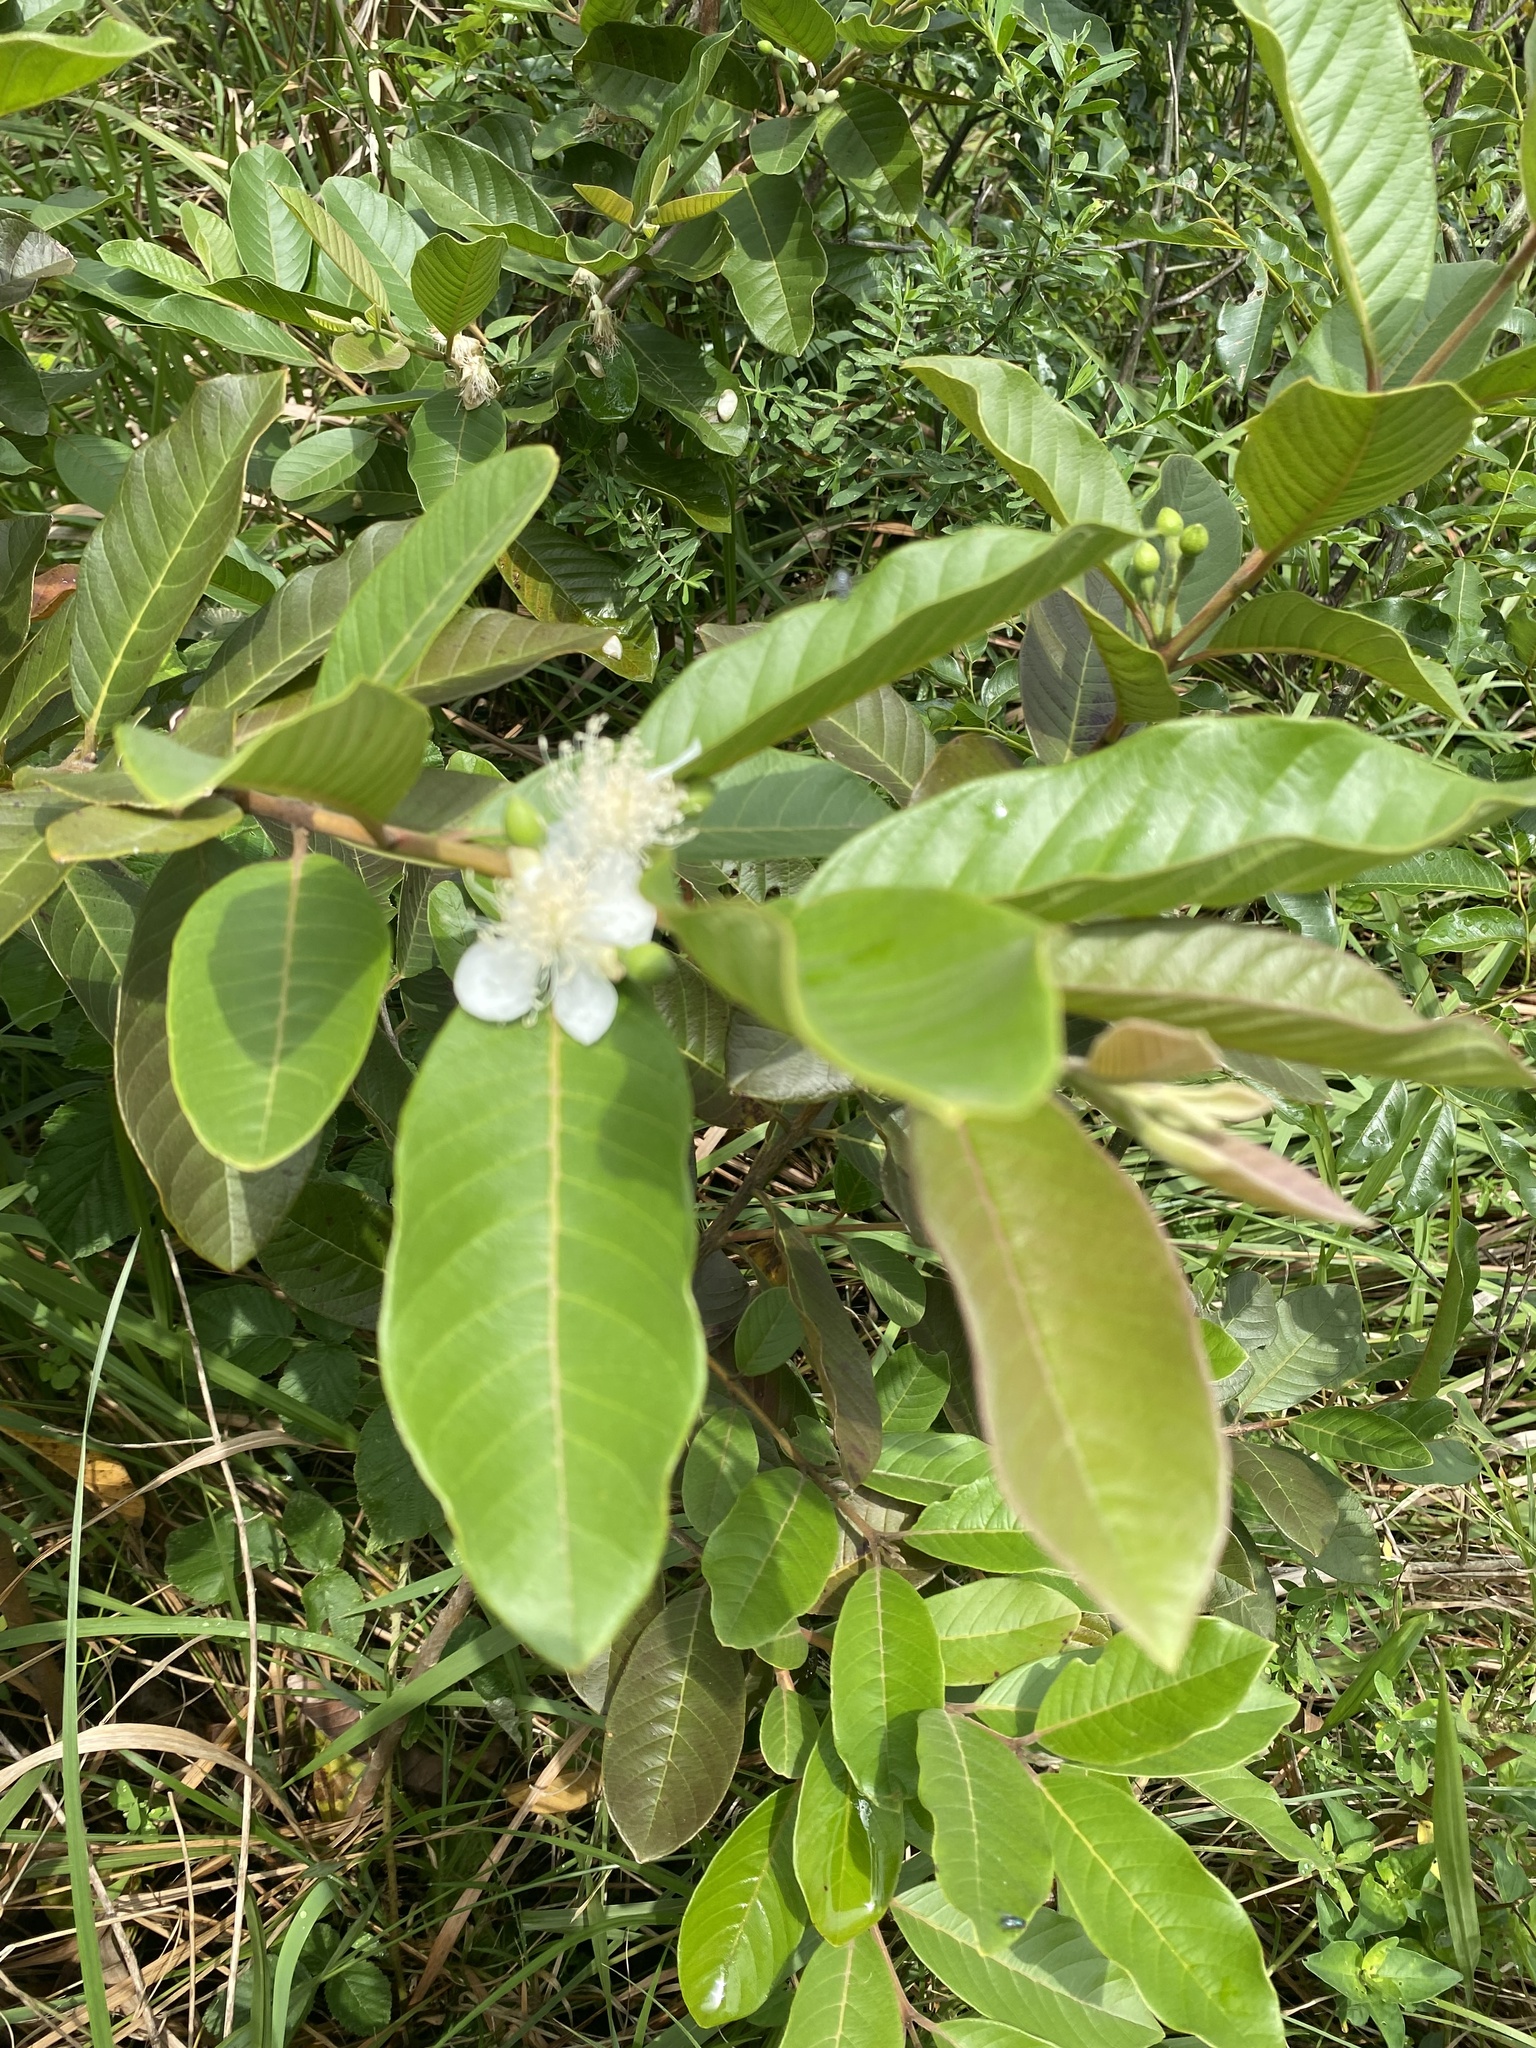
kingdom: Plantae
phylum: Tracheophyta
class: Magnoliopsida
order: Myrtales
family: Myrtaceae
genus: Psidium
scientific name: Psidium guajava
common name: Guava
